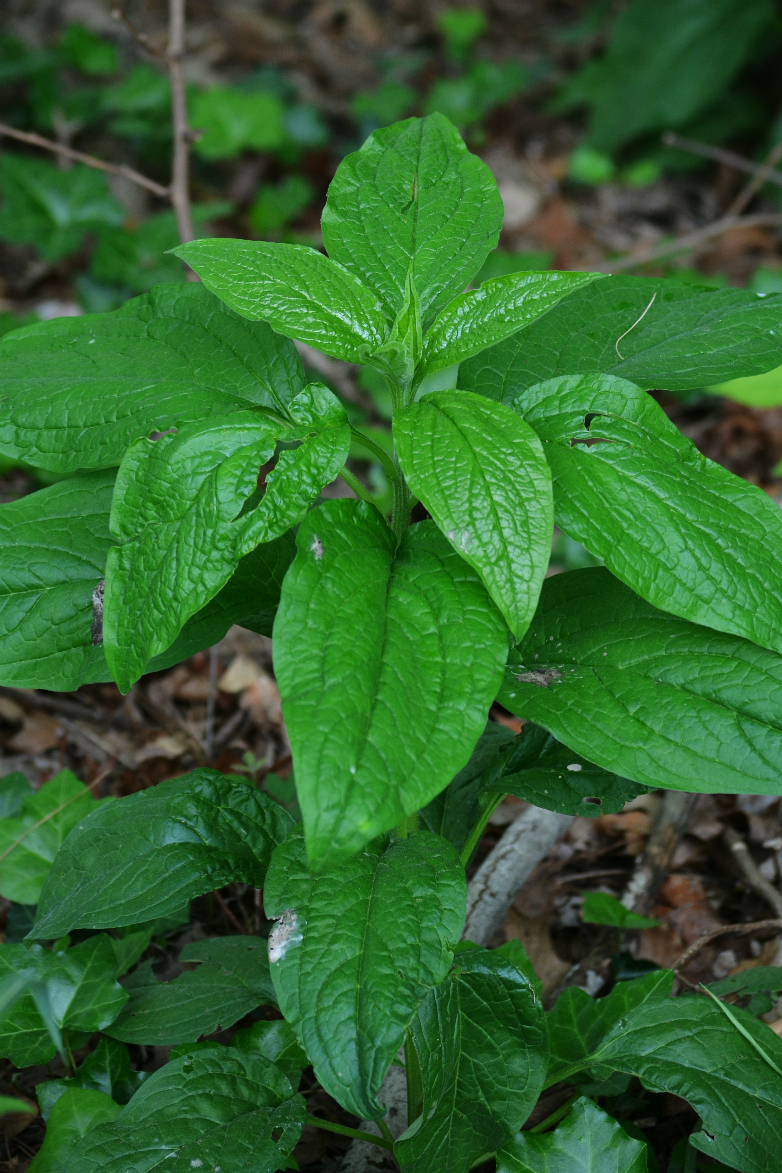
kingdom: Plantae
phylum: Tracheophyta
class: Magnoliopsida
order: Boraginales
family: Boraginaceae
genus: Hackelia
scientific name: Hackelia virginiana
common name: Beggar's-lice
